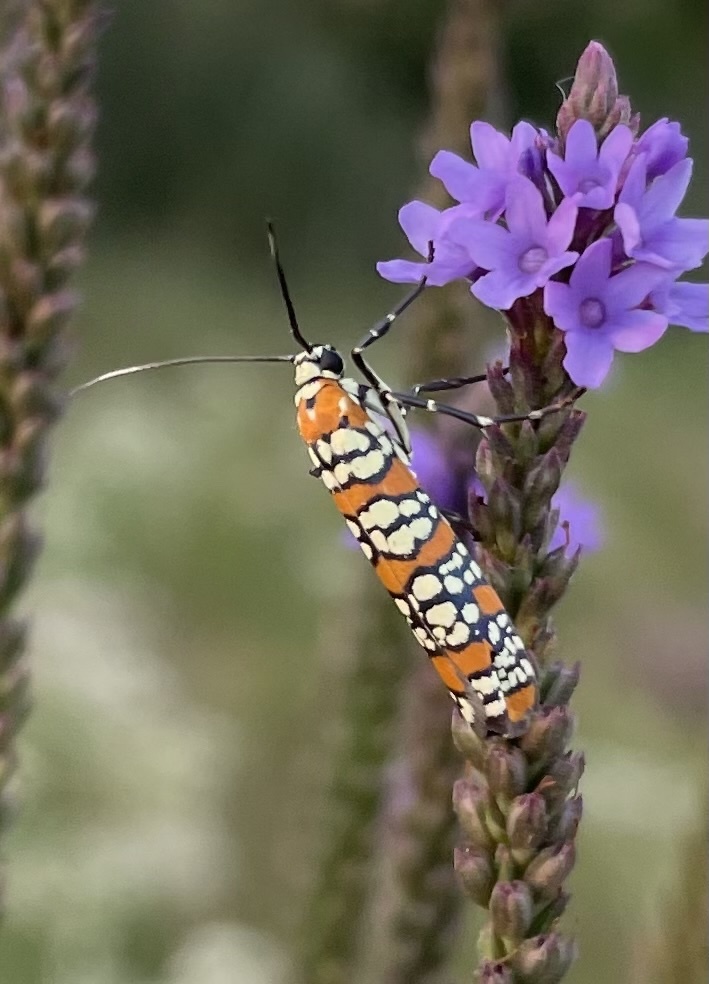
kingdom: Animalia
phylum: Arthropoda
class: Insecta
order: Lepidoptera
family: Attevidae
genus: Atteva
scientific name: Atteva punctella
